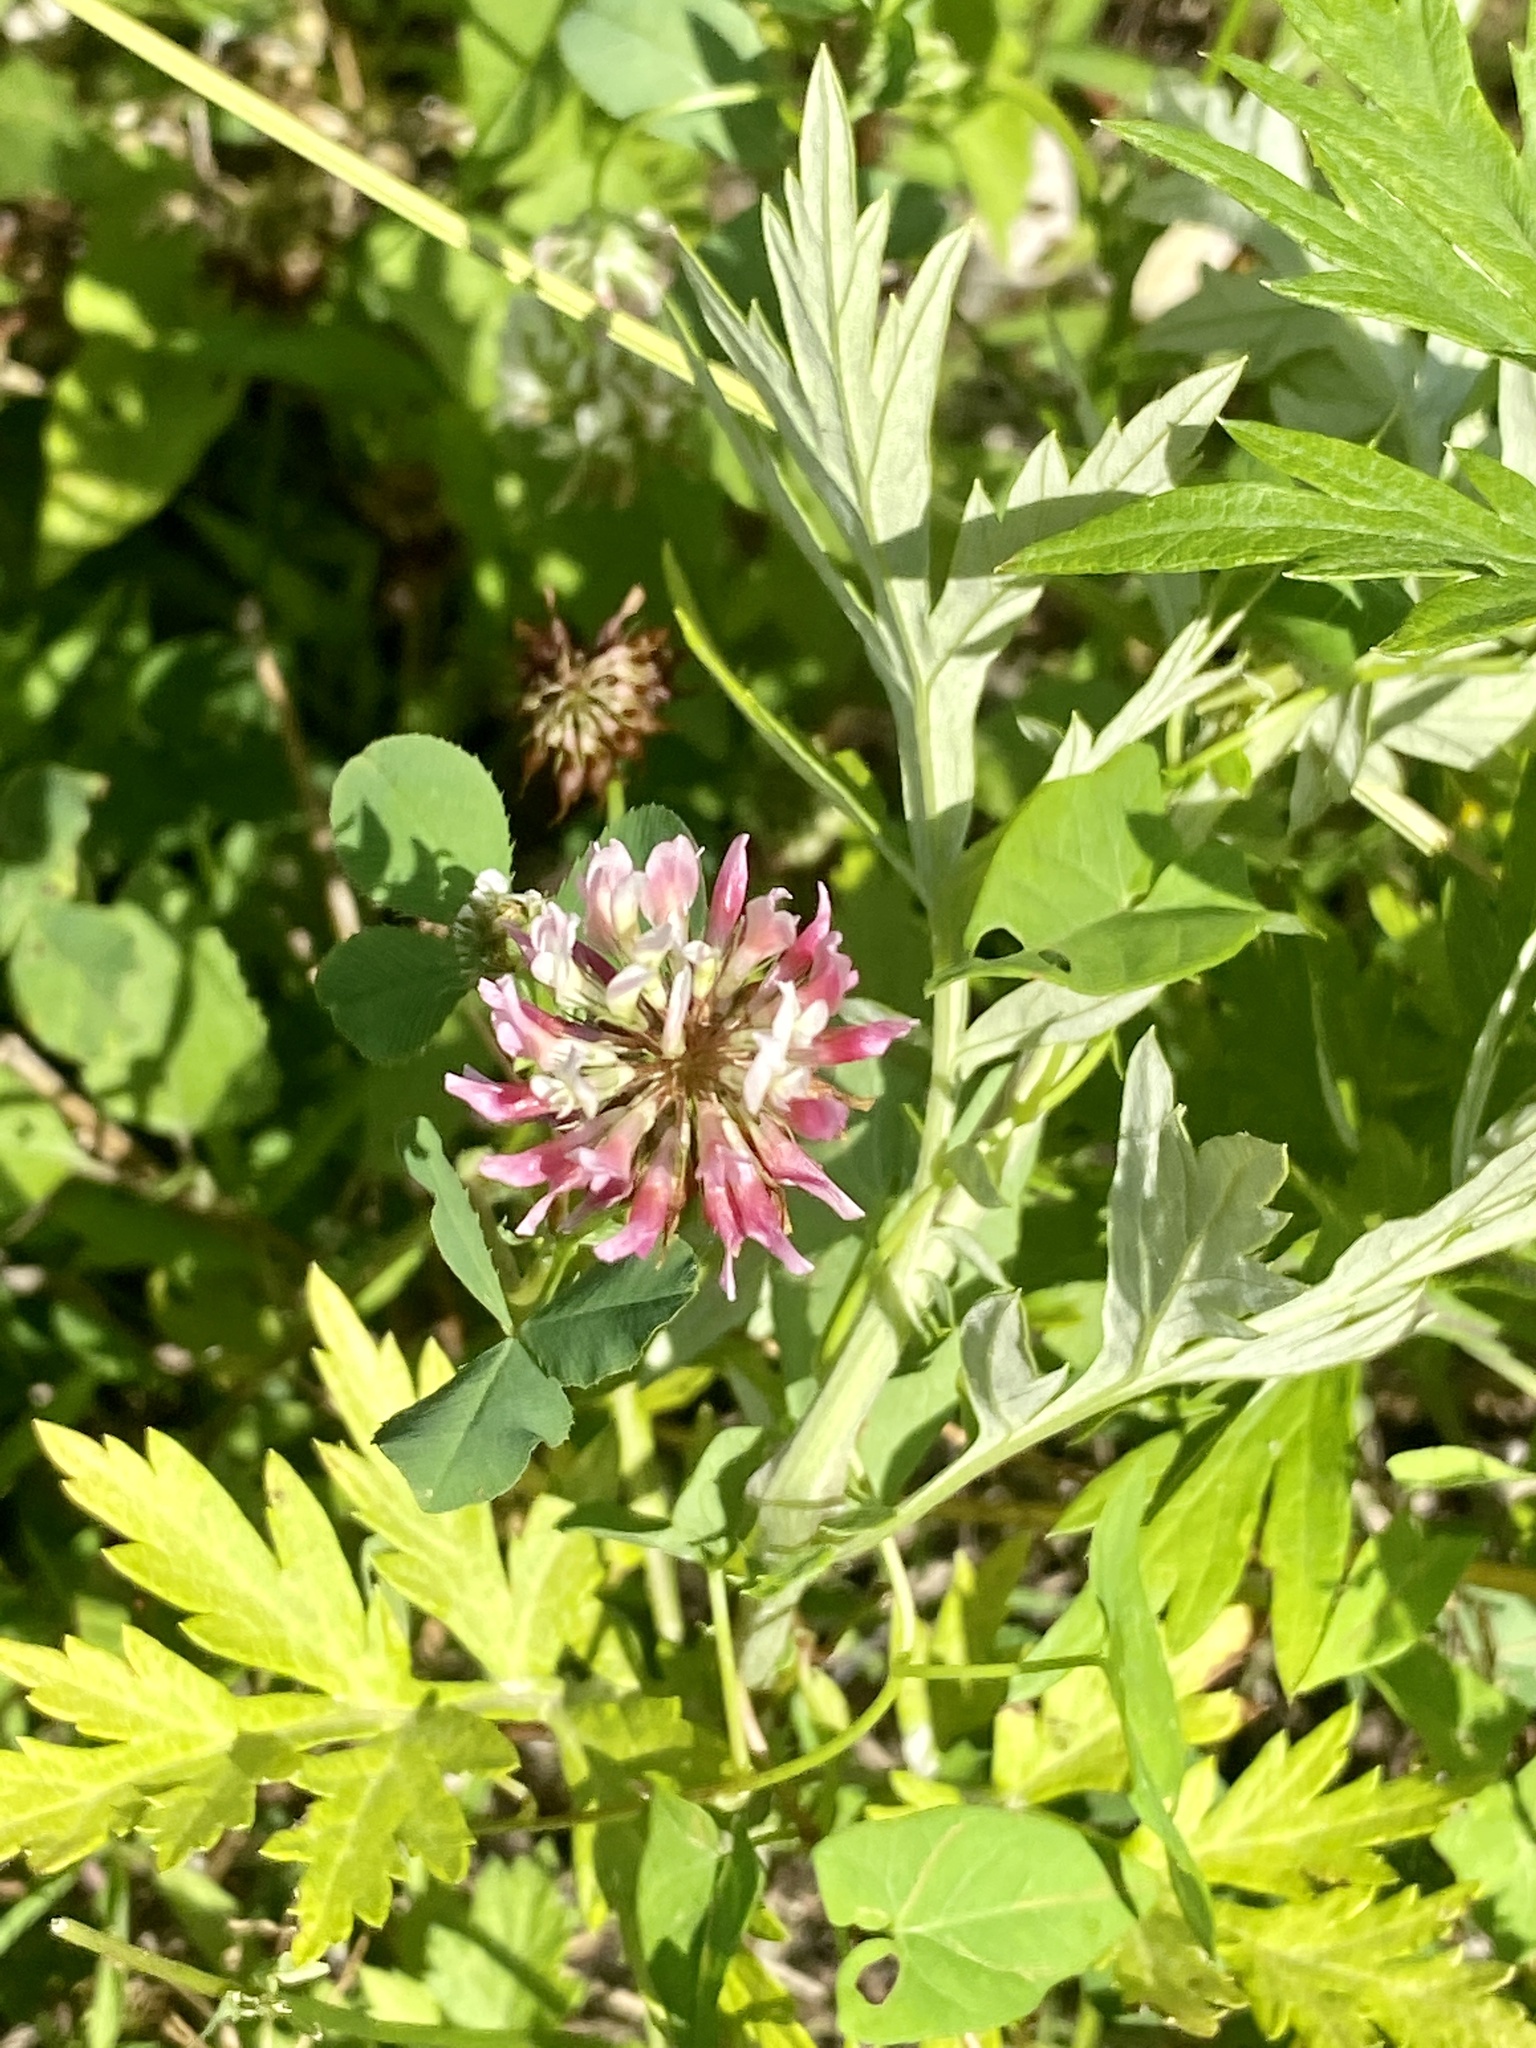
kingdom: Plantae
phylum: Tracheophyta
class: Magnoliopsida
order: Fabales
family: Fabaceae
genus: Trifolium
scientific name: Trifolium hybridum
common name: Alsike clover
